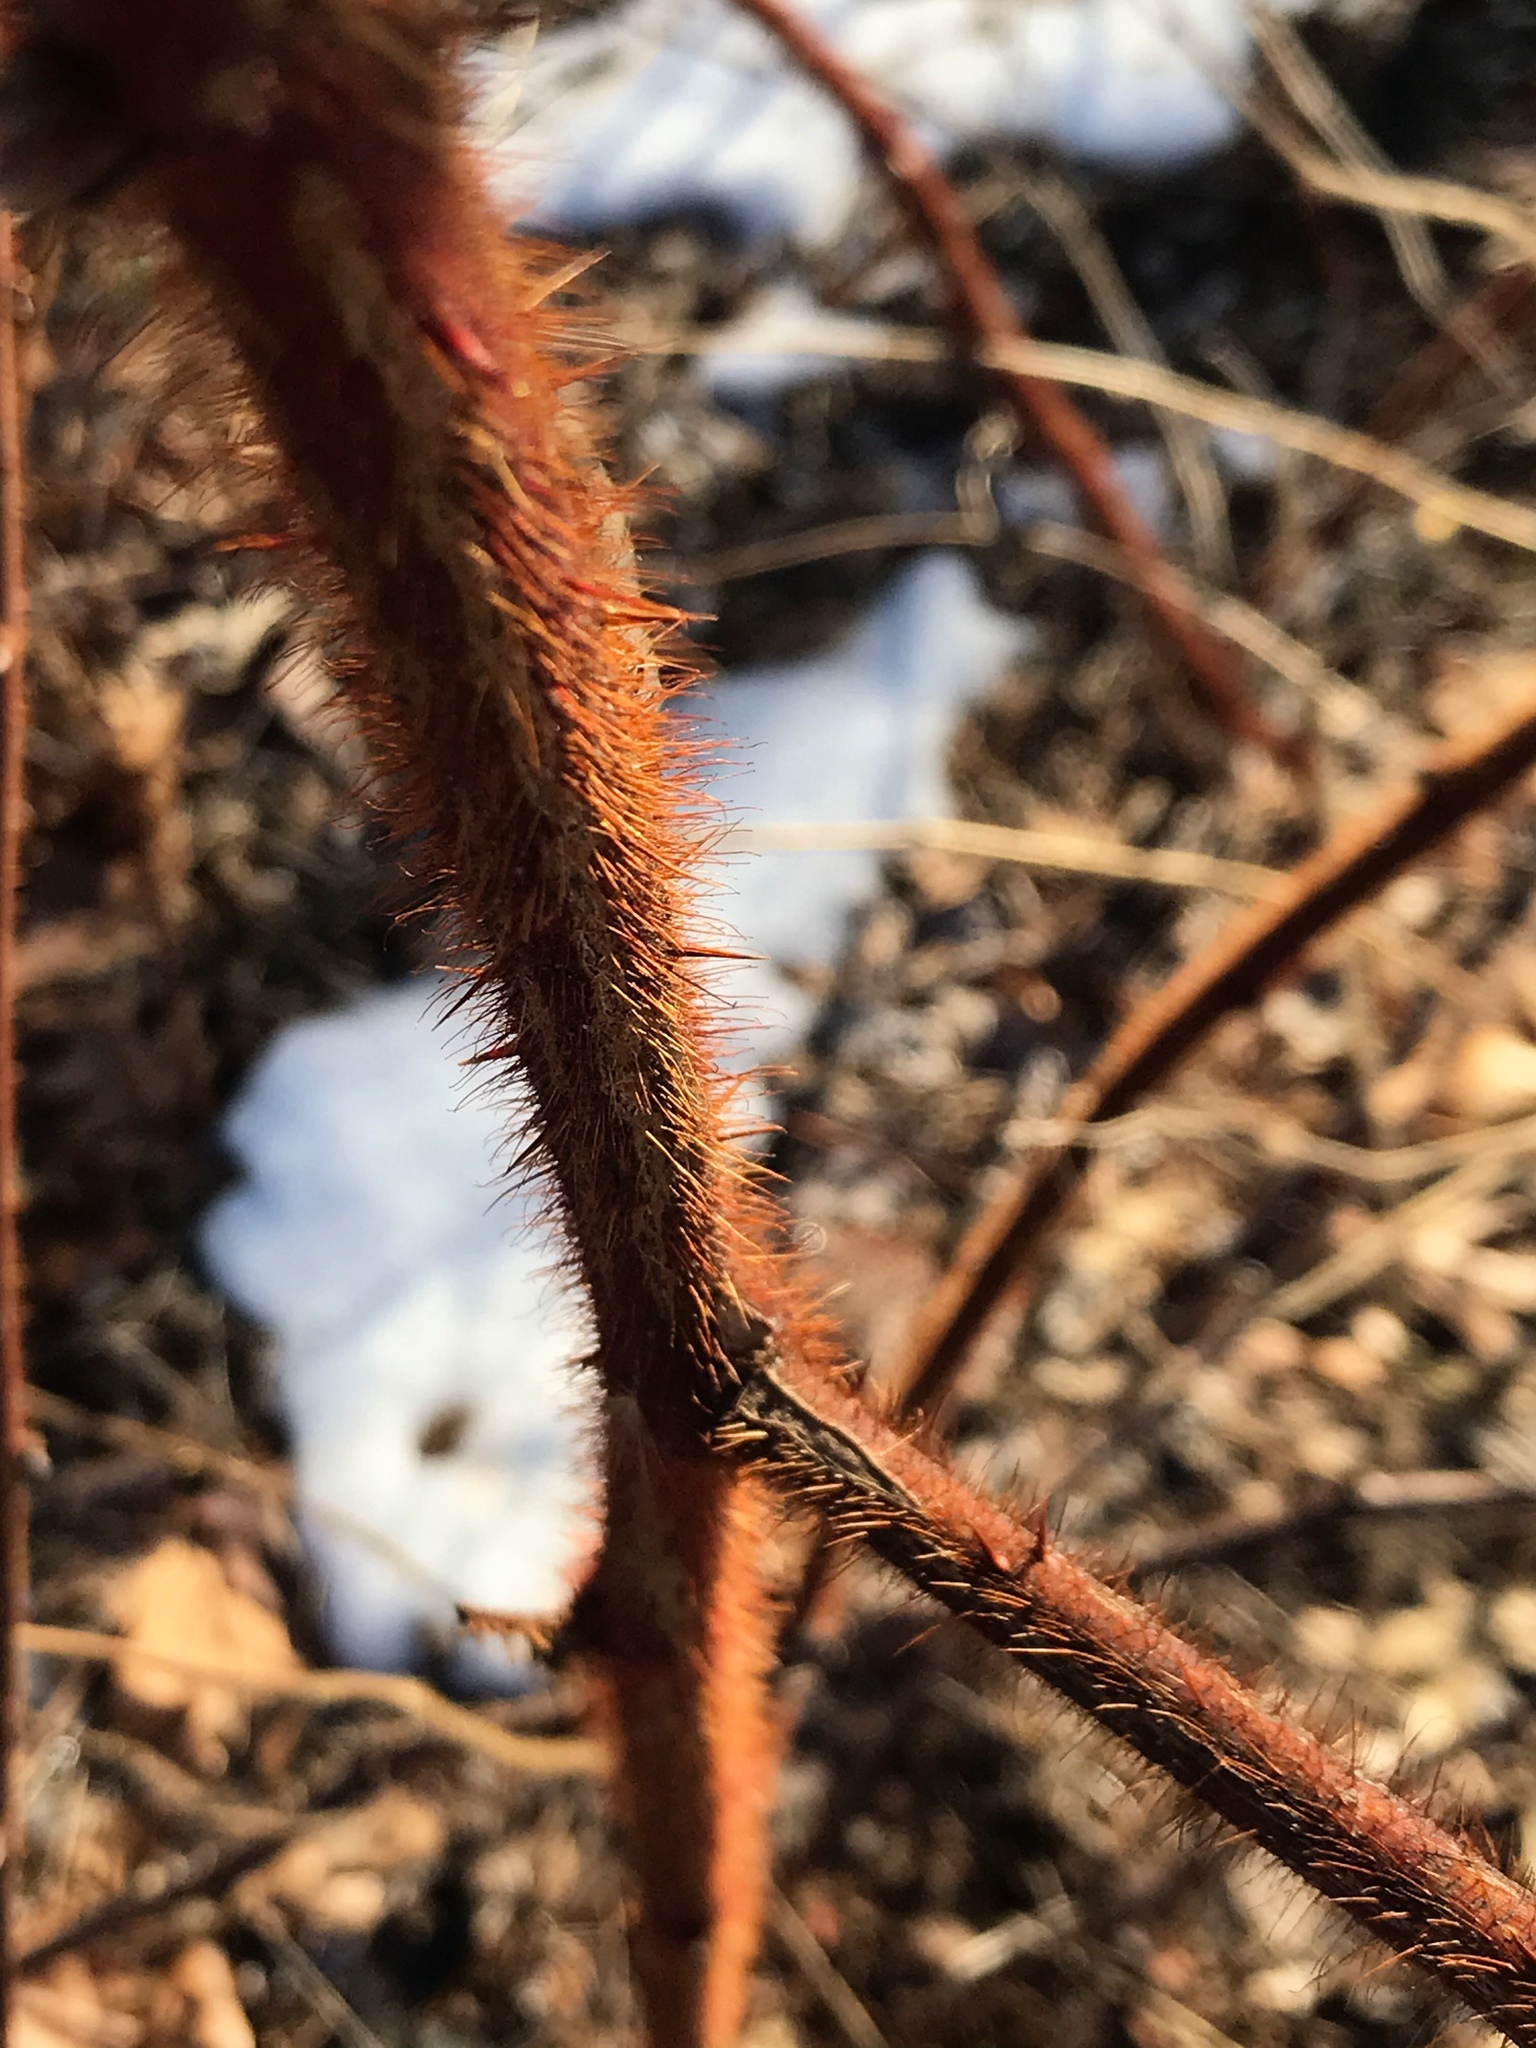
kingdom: Plantae
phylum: Tracheophyta
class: Magnoliopsida
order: Rosales
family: Rosaceae
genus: Rubus
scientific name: Rubus phoenicolasius
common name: Japanese wineberry
